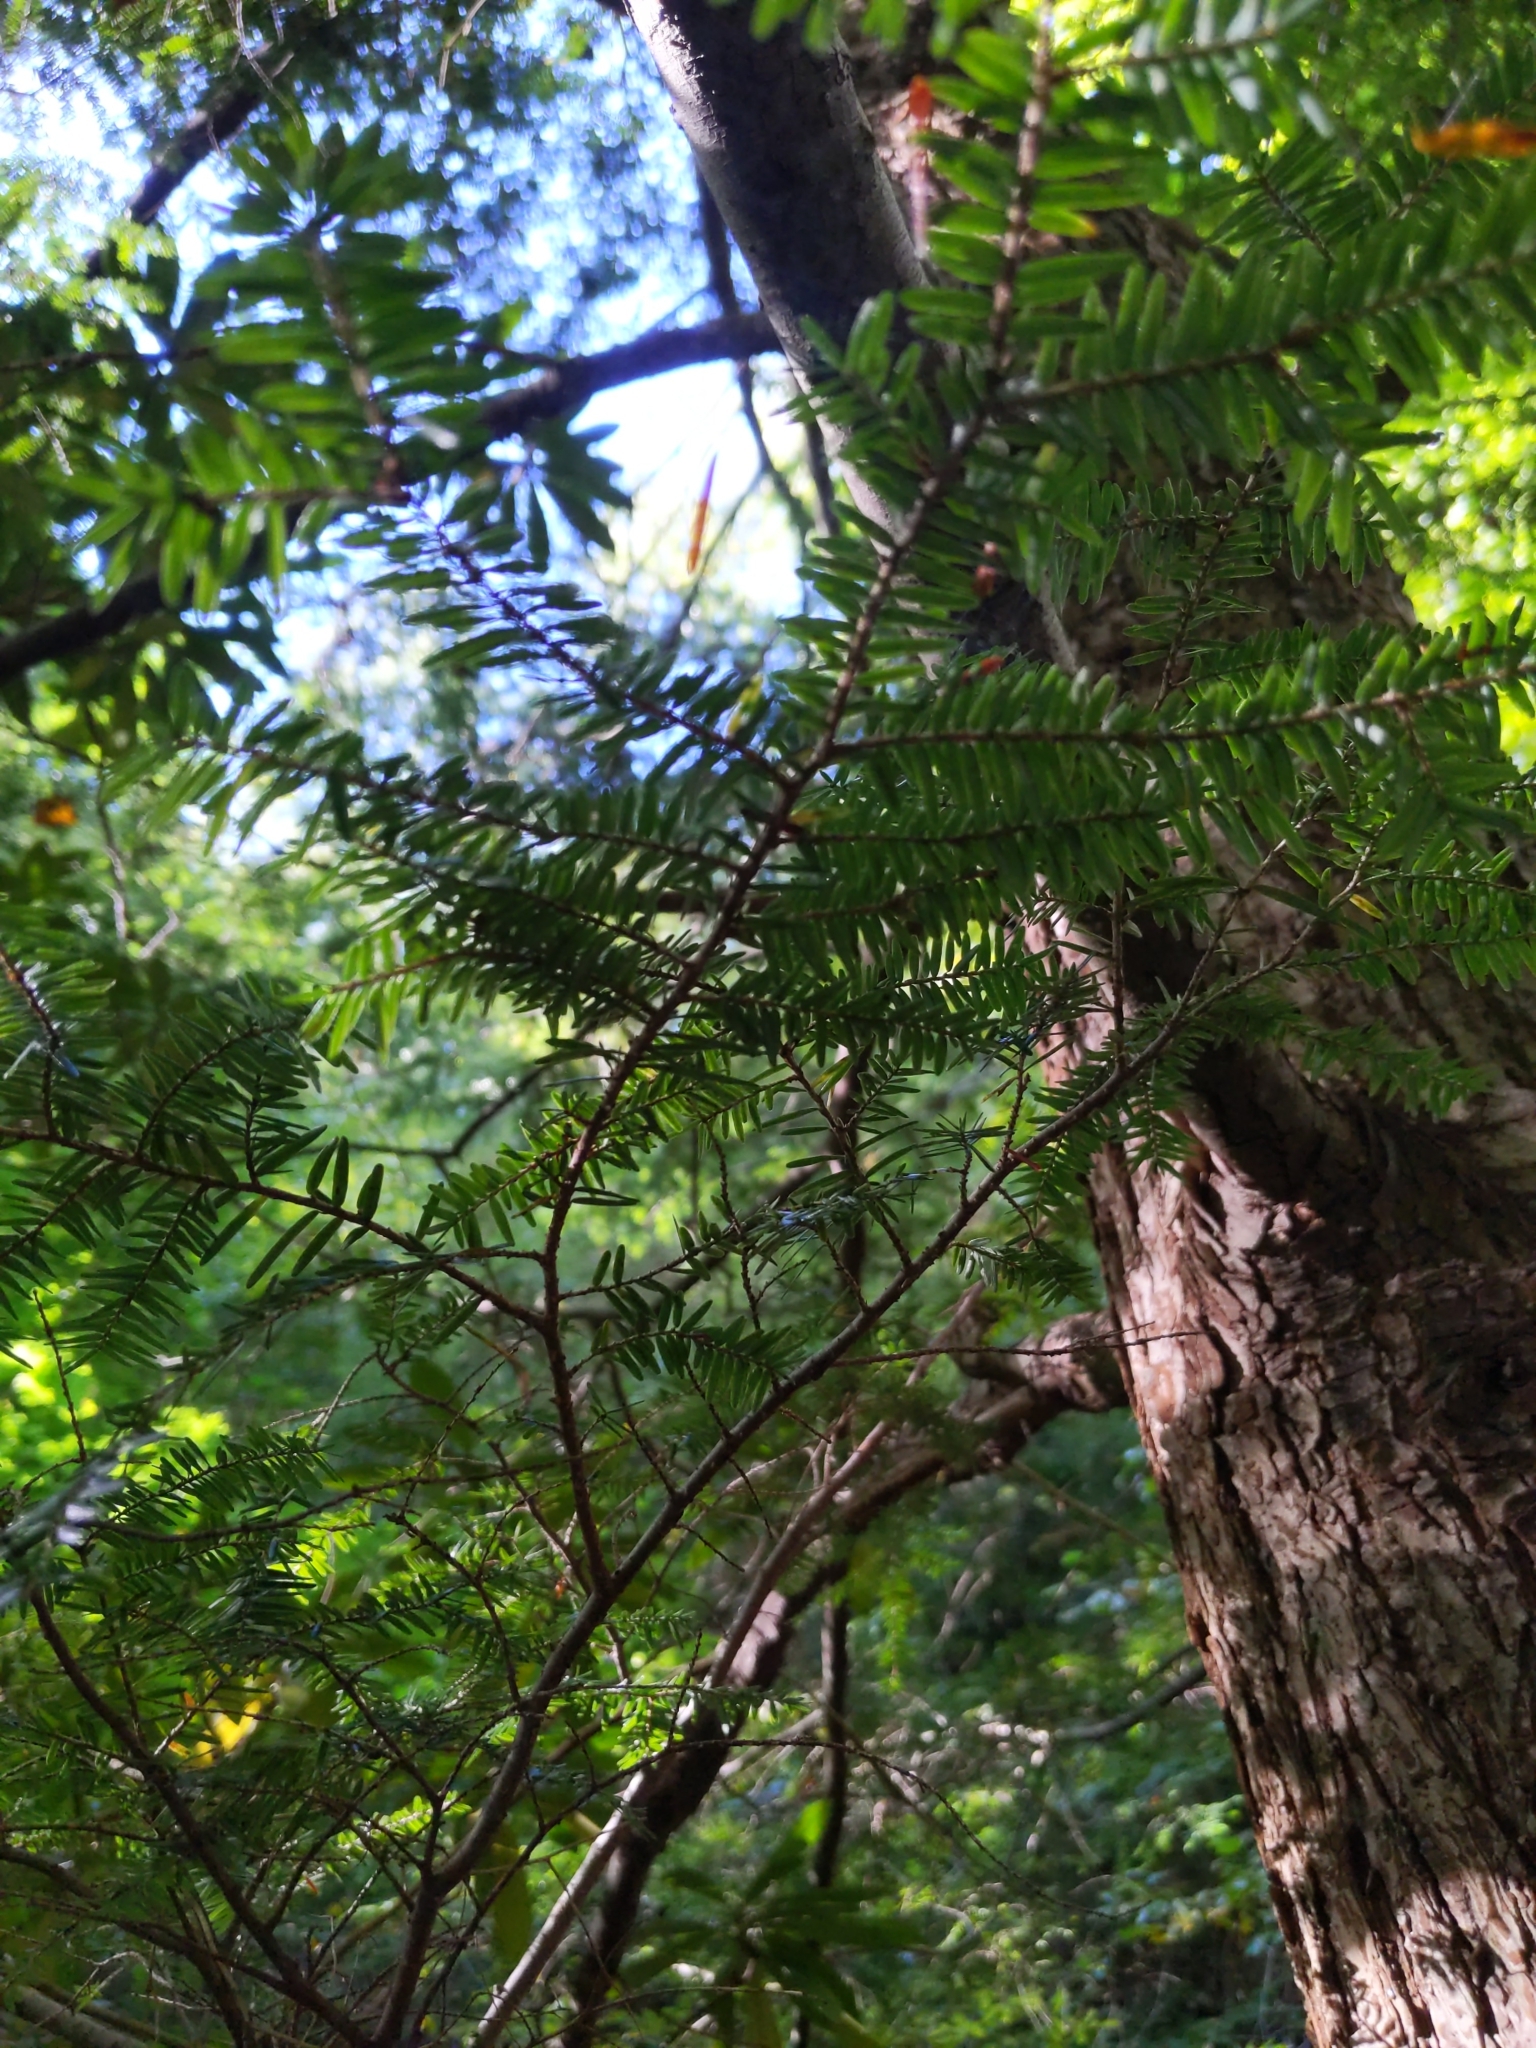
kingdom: Plantae
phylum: Tracheophyta
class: Pinopsida
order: Pinales
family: Pinaceae
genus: Tsuga
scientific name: Tsuga canadensis
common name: Eastern hemlock
